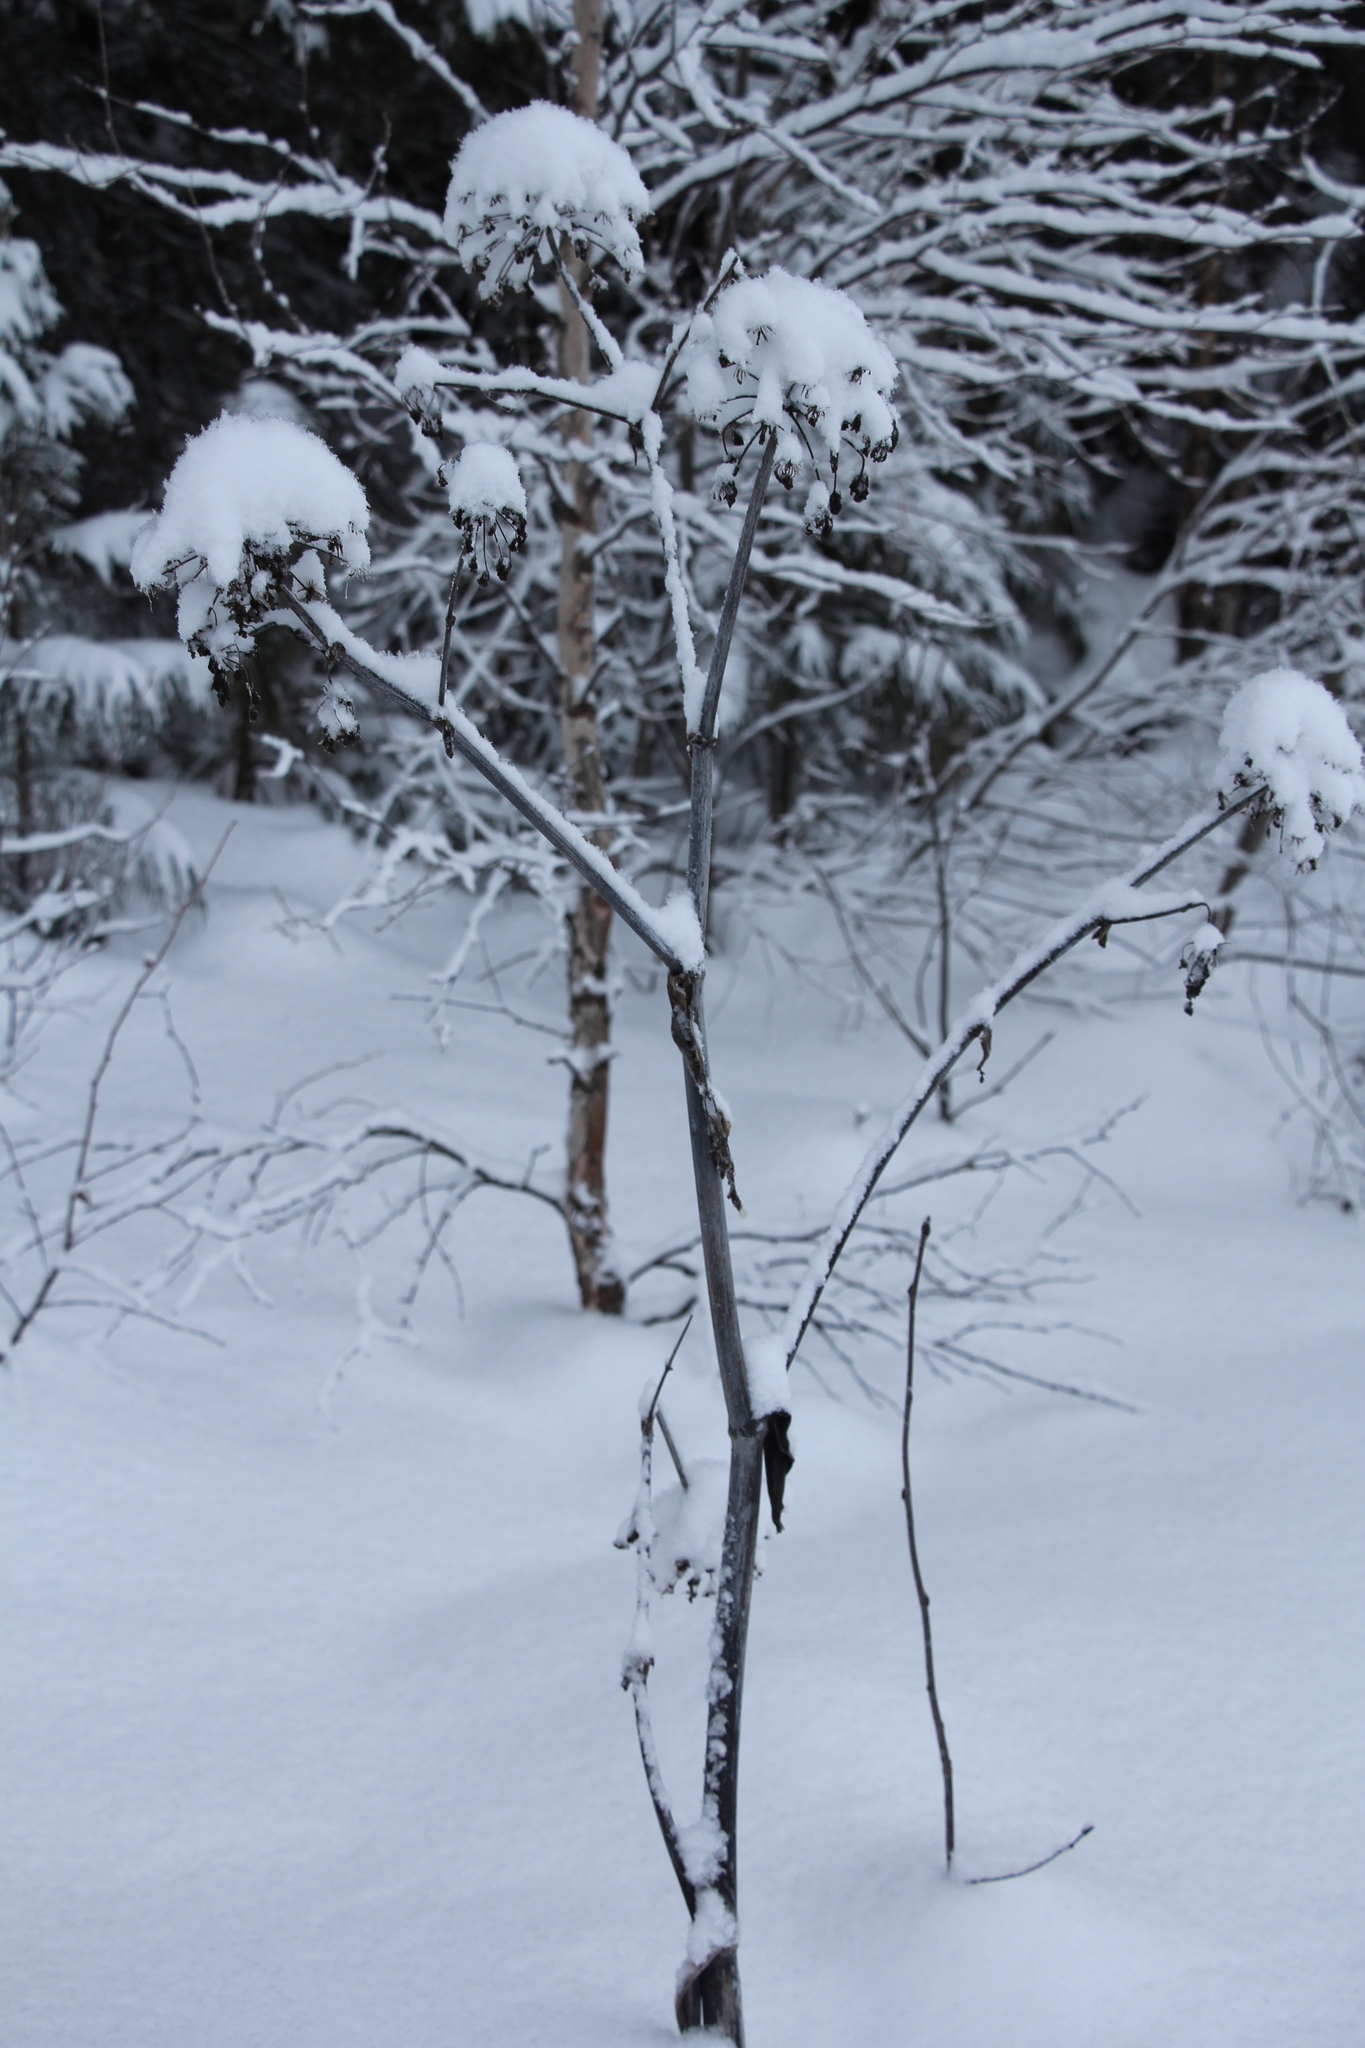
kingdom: Plantae
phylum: Tracheophyta
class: Magnoliopsida
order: Apiales
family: Apiaceae
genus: Angelica
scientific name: Angelica decurrens
